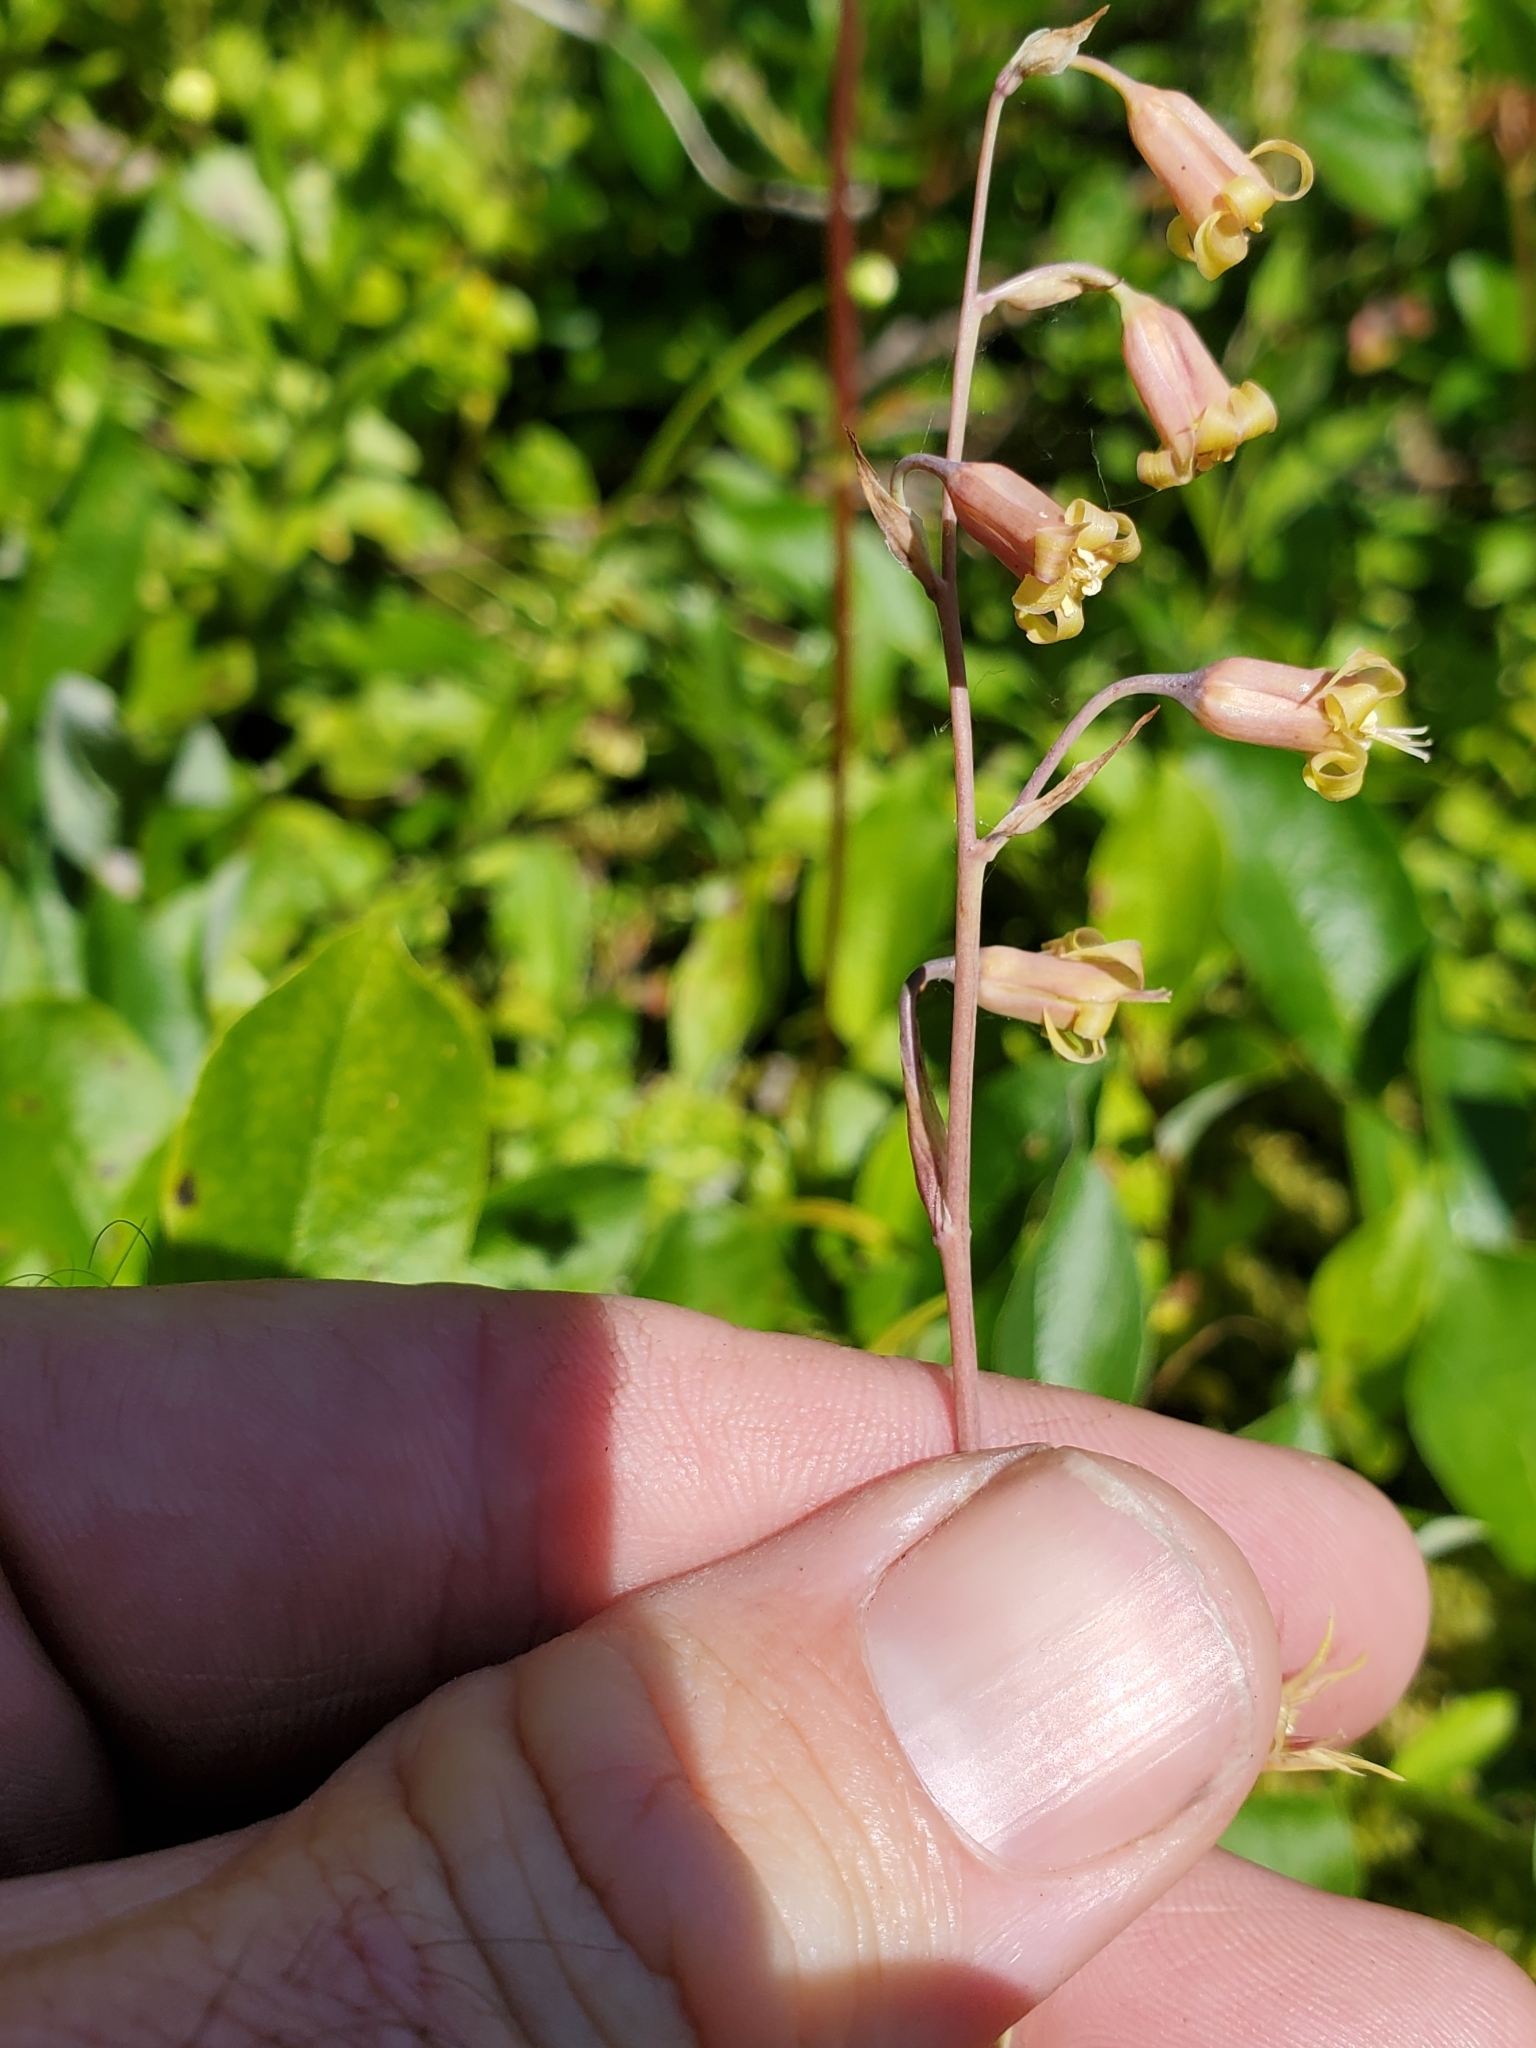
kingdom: Plantae
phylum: Tracheophyta
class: Liliopsida
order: Liliales
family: Melanthiaceae
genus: Anticlea
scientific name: Anticlea occidentalis
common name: Bronze-bells
